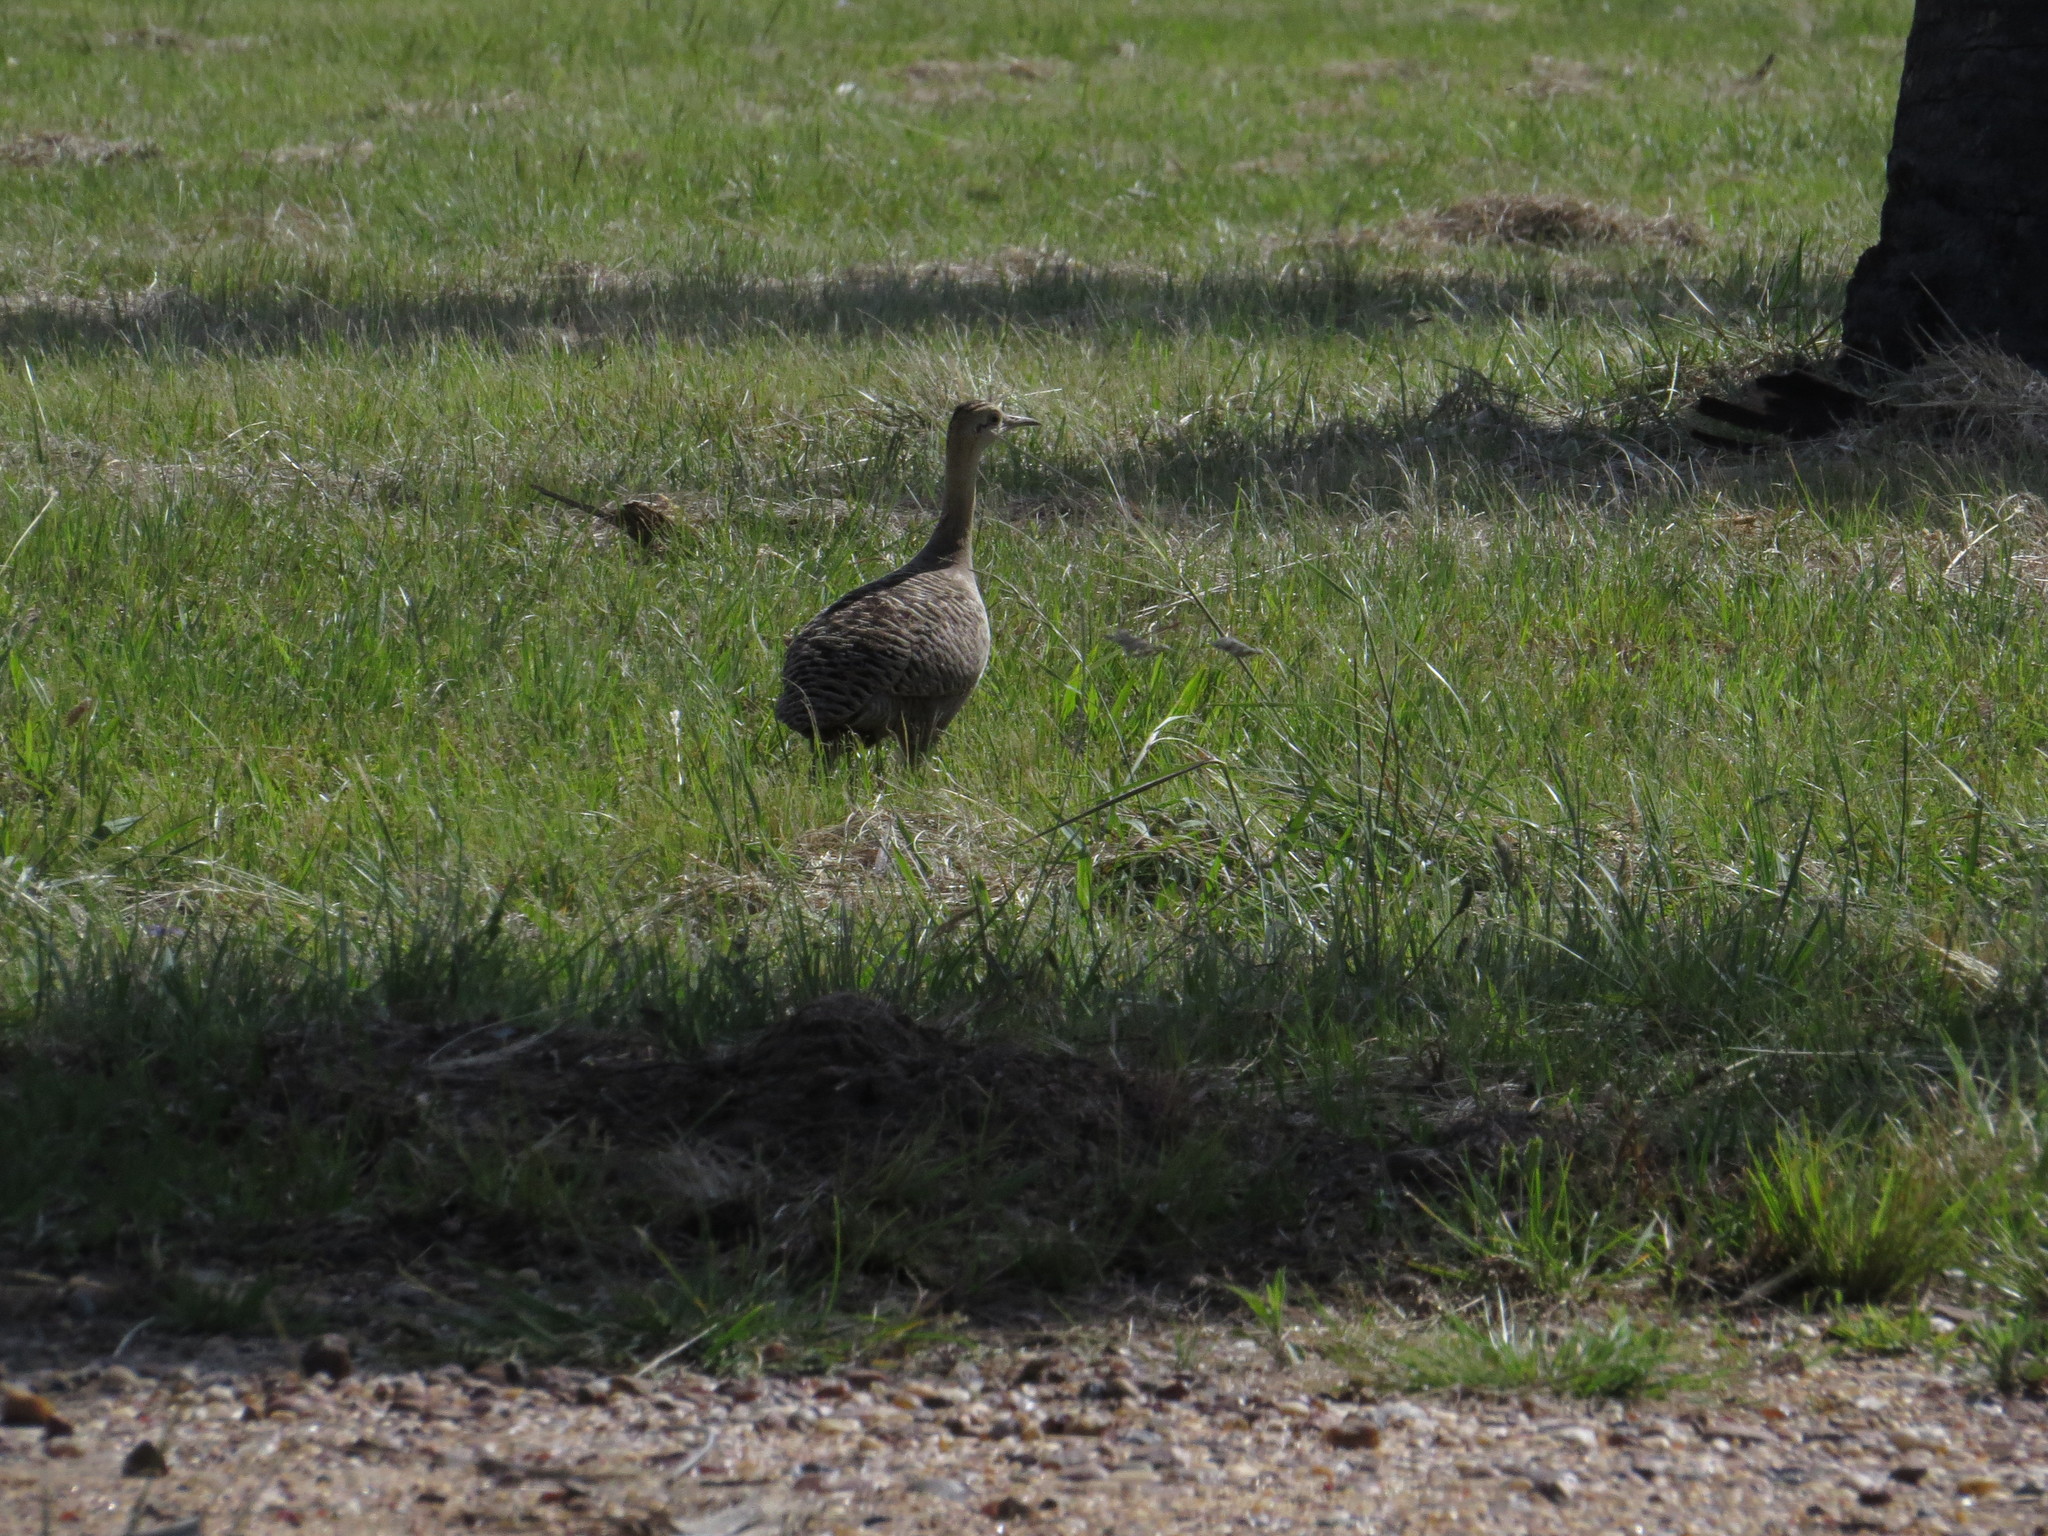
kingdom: Animalia
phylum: Chordata
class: Aves
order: Tinamiformes
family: Tinamidae
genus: Rhynchotus
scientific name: Rhynchotus rufescens
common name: Red-winged tinamou
